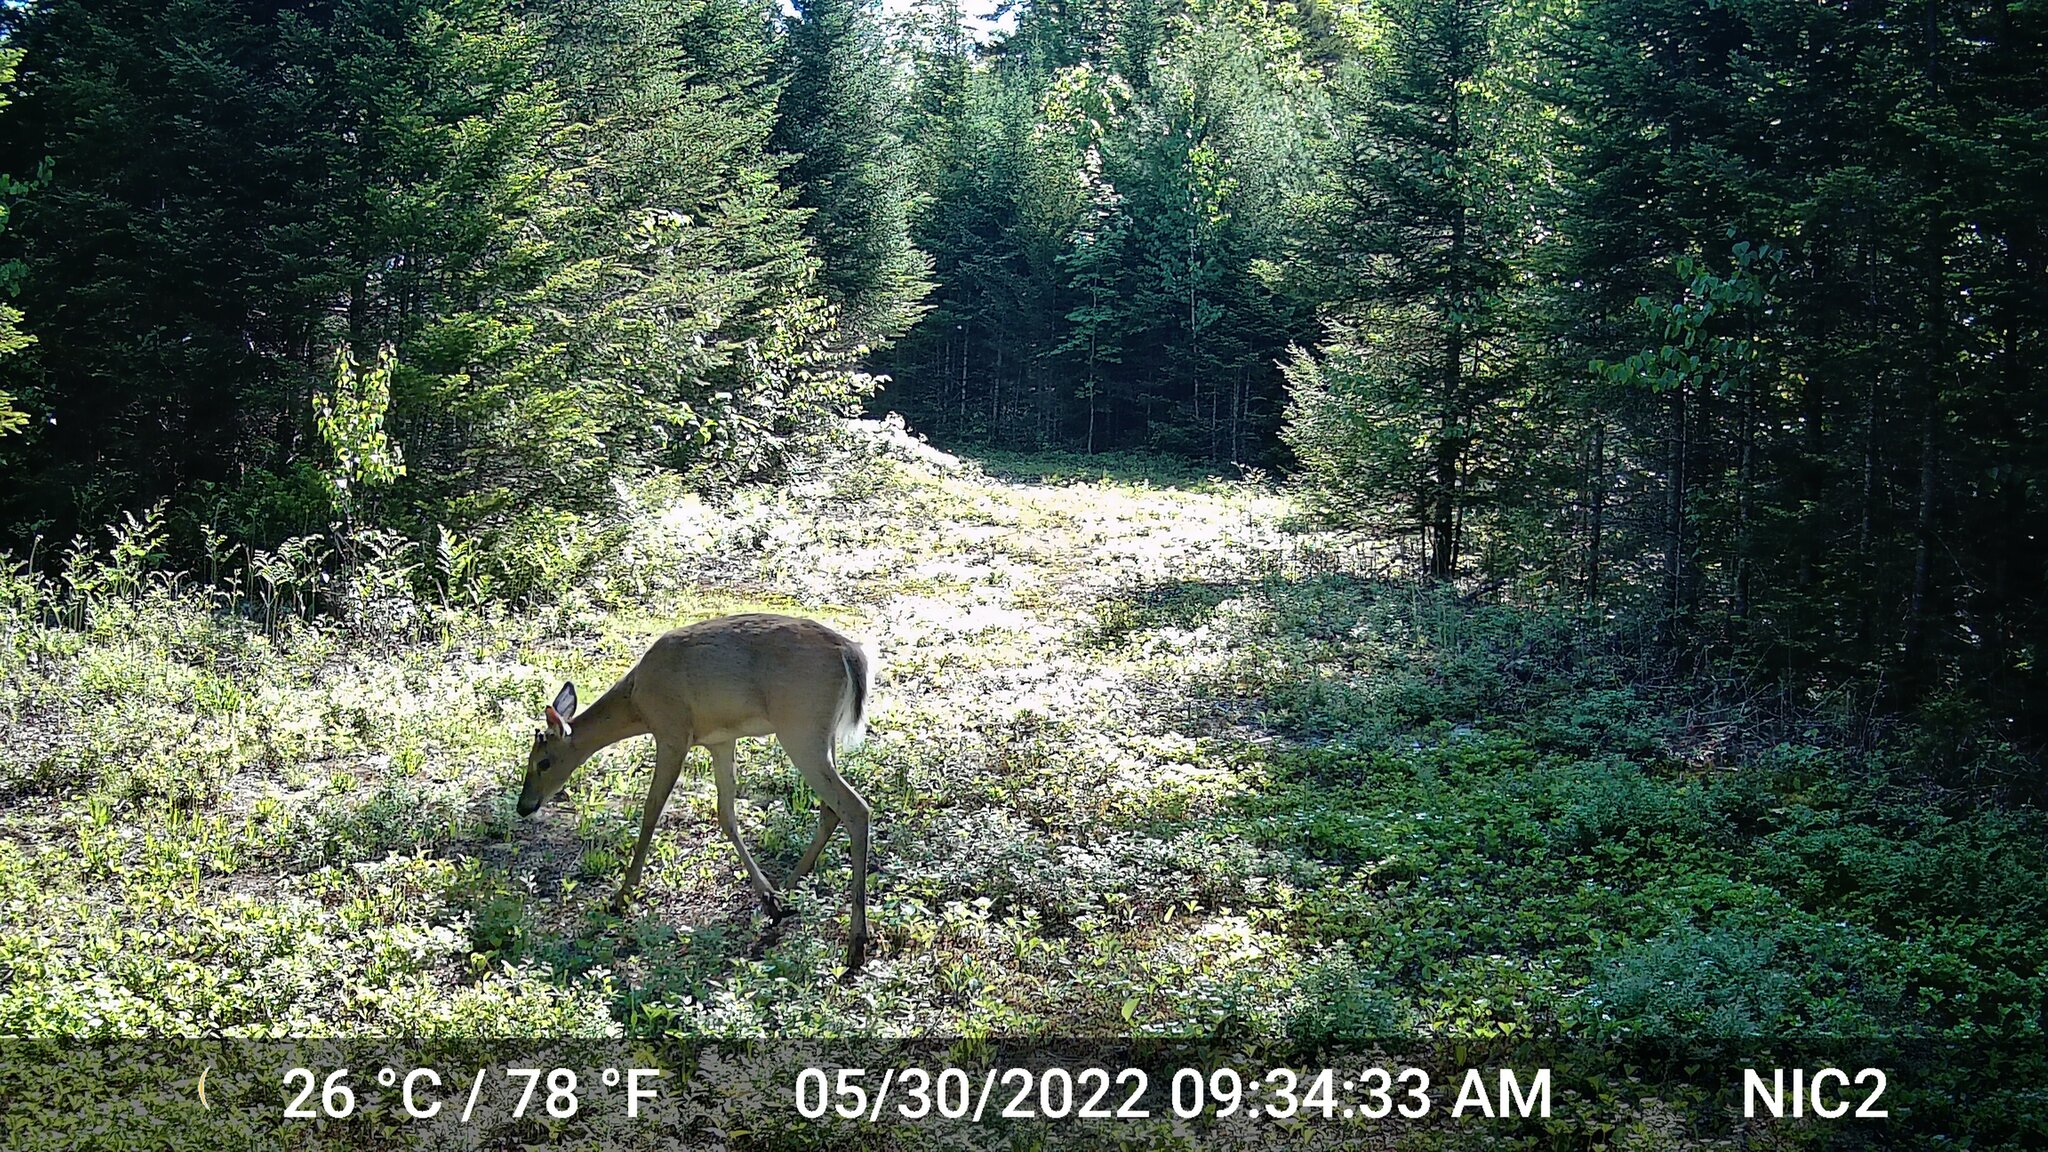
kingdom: Animalia
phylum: Chordata
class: Mammalia
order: Artiodactyla
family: Cervidae
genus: Odocoileus
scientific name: Odocoileus virginianus
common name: White-tailed deer
